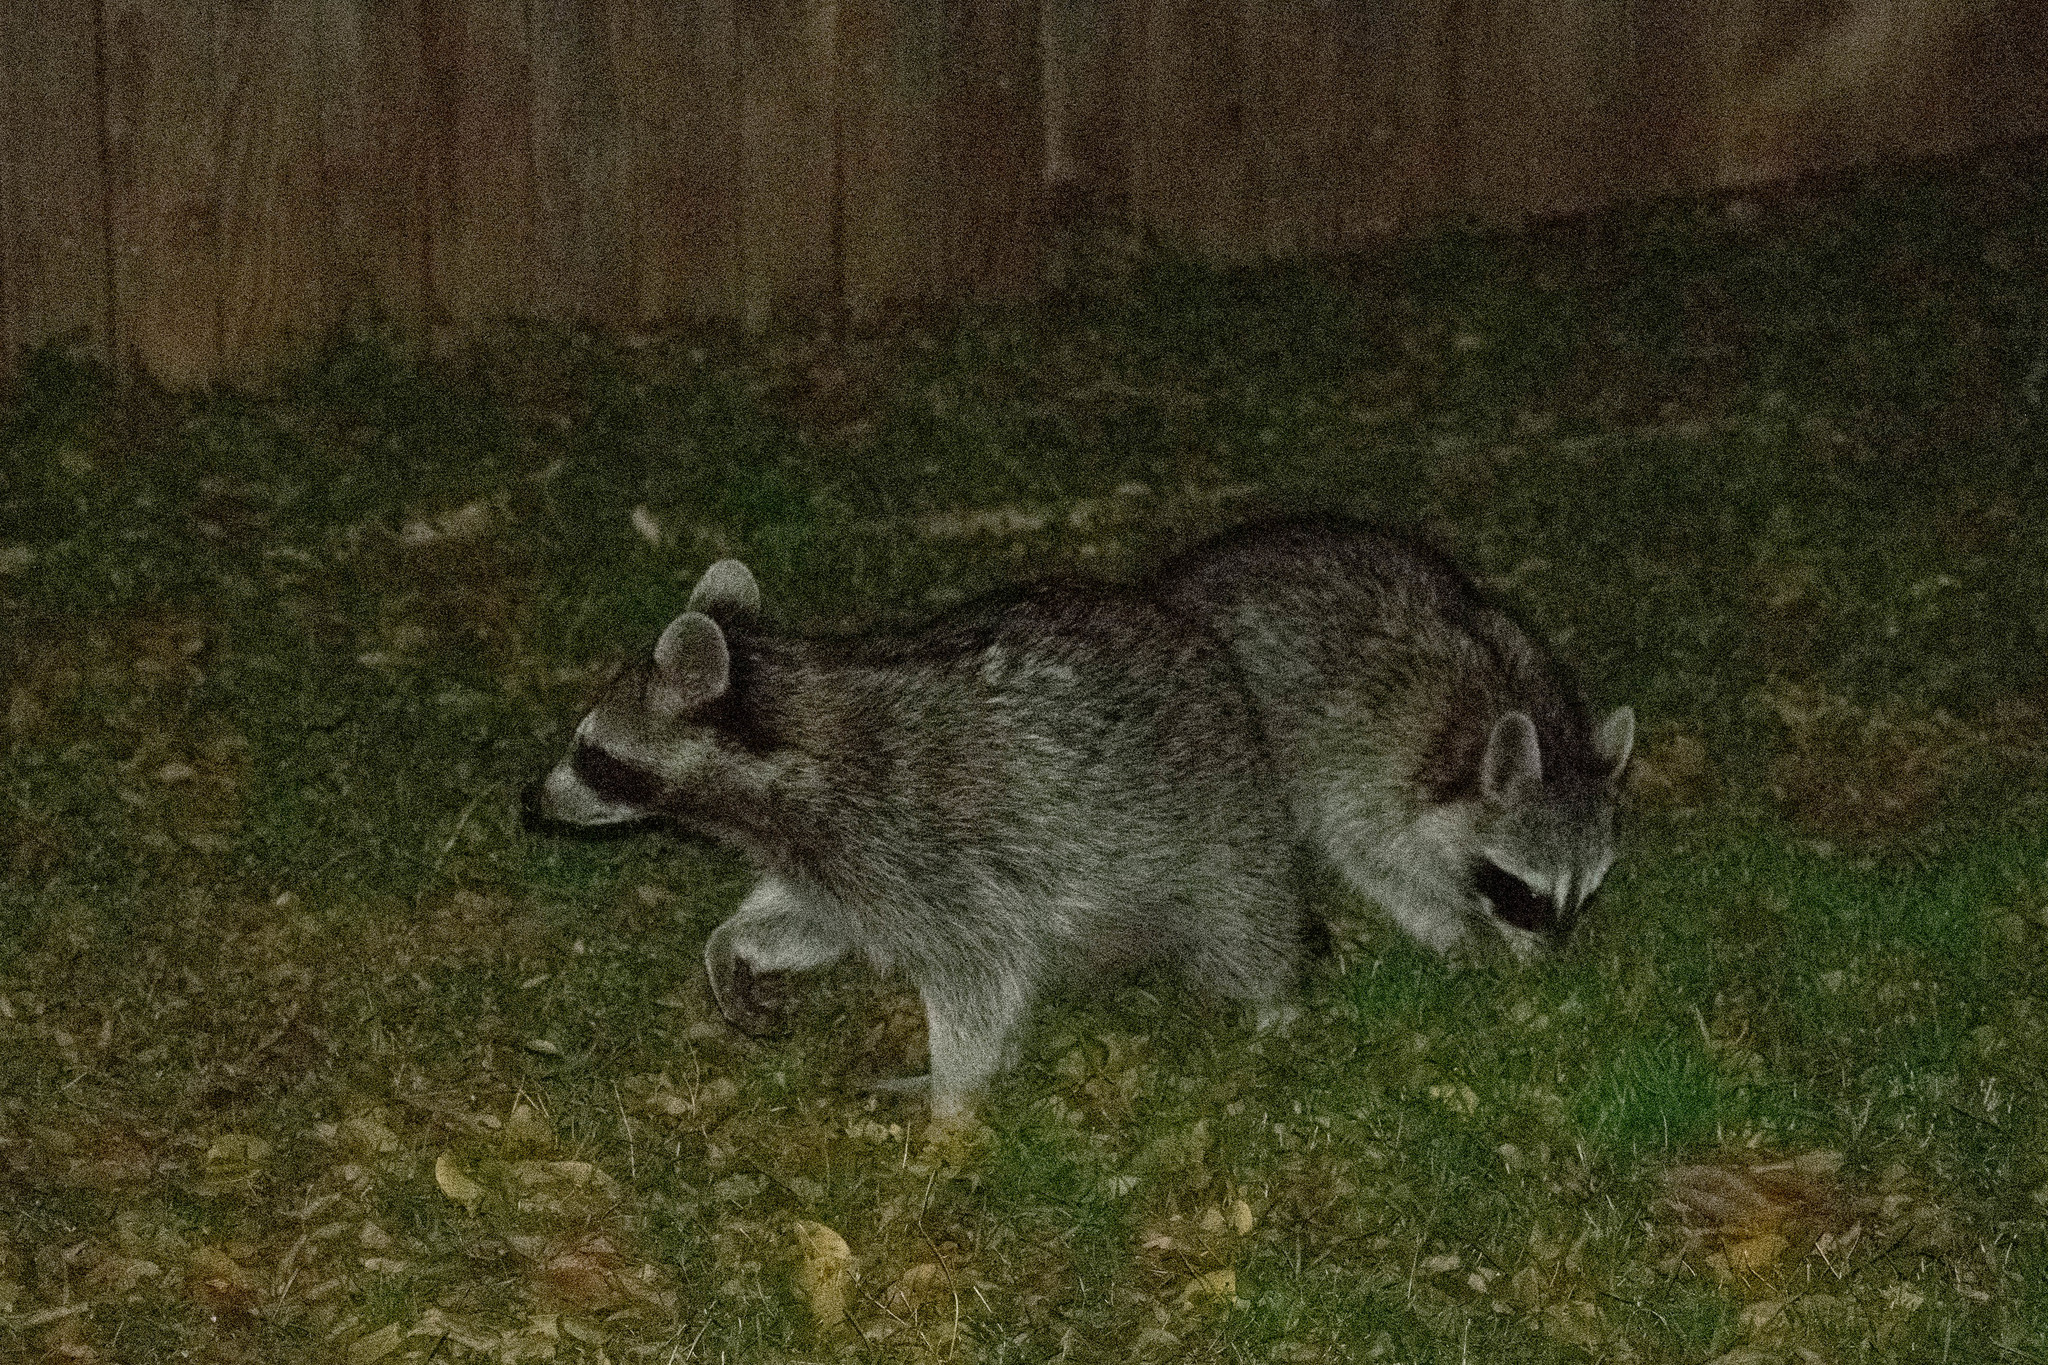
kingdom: Animalia
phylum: Chordata
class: Mammalia
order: Carnivora
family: Procyonidae
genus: Procyon
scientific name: Procyon lotor
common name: Raccoon
